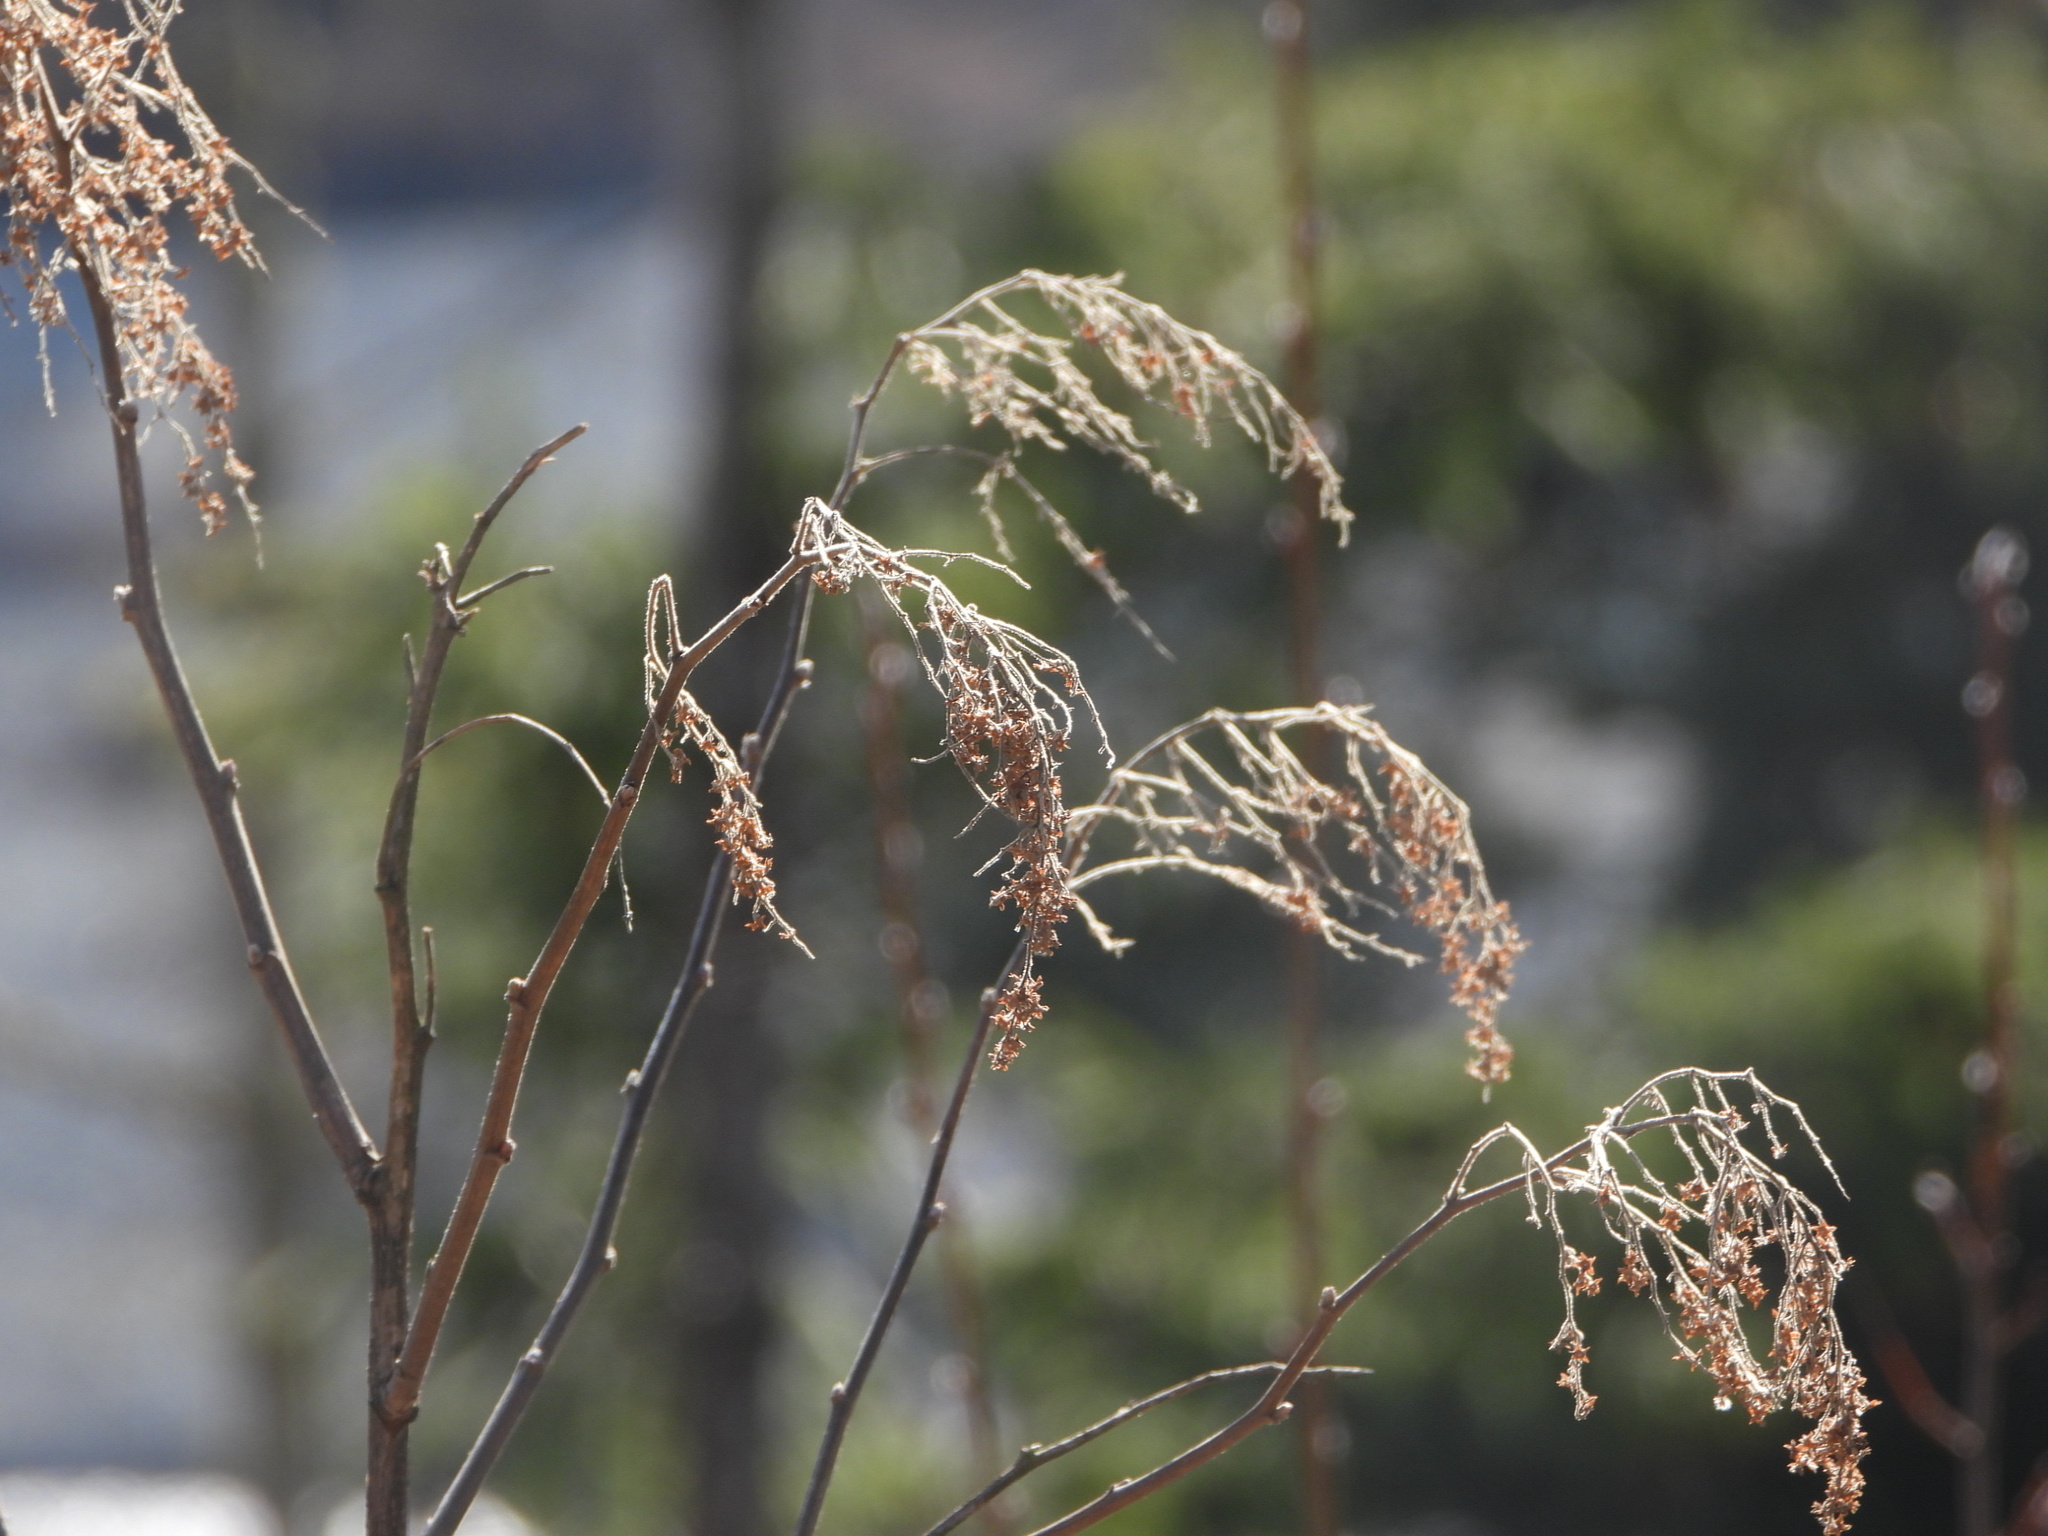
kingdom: Plantae
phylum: Tracheophyta
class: Magnoliopsida
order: Rosales
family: Rosaceae
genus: Holodiscus
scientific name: Holodiscus discolor
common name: Oceanspray
